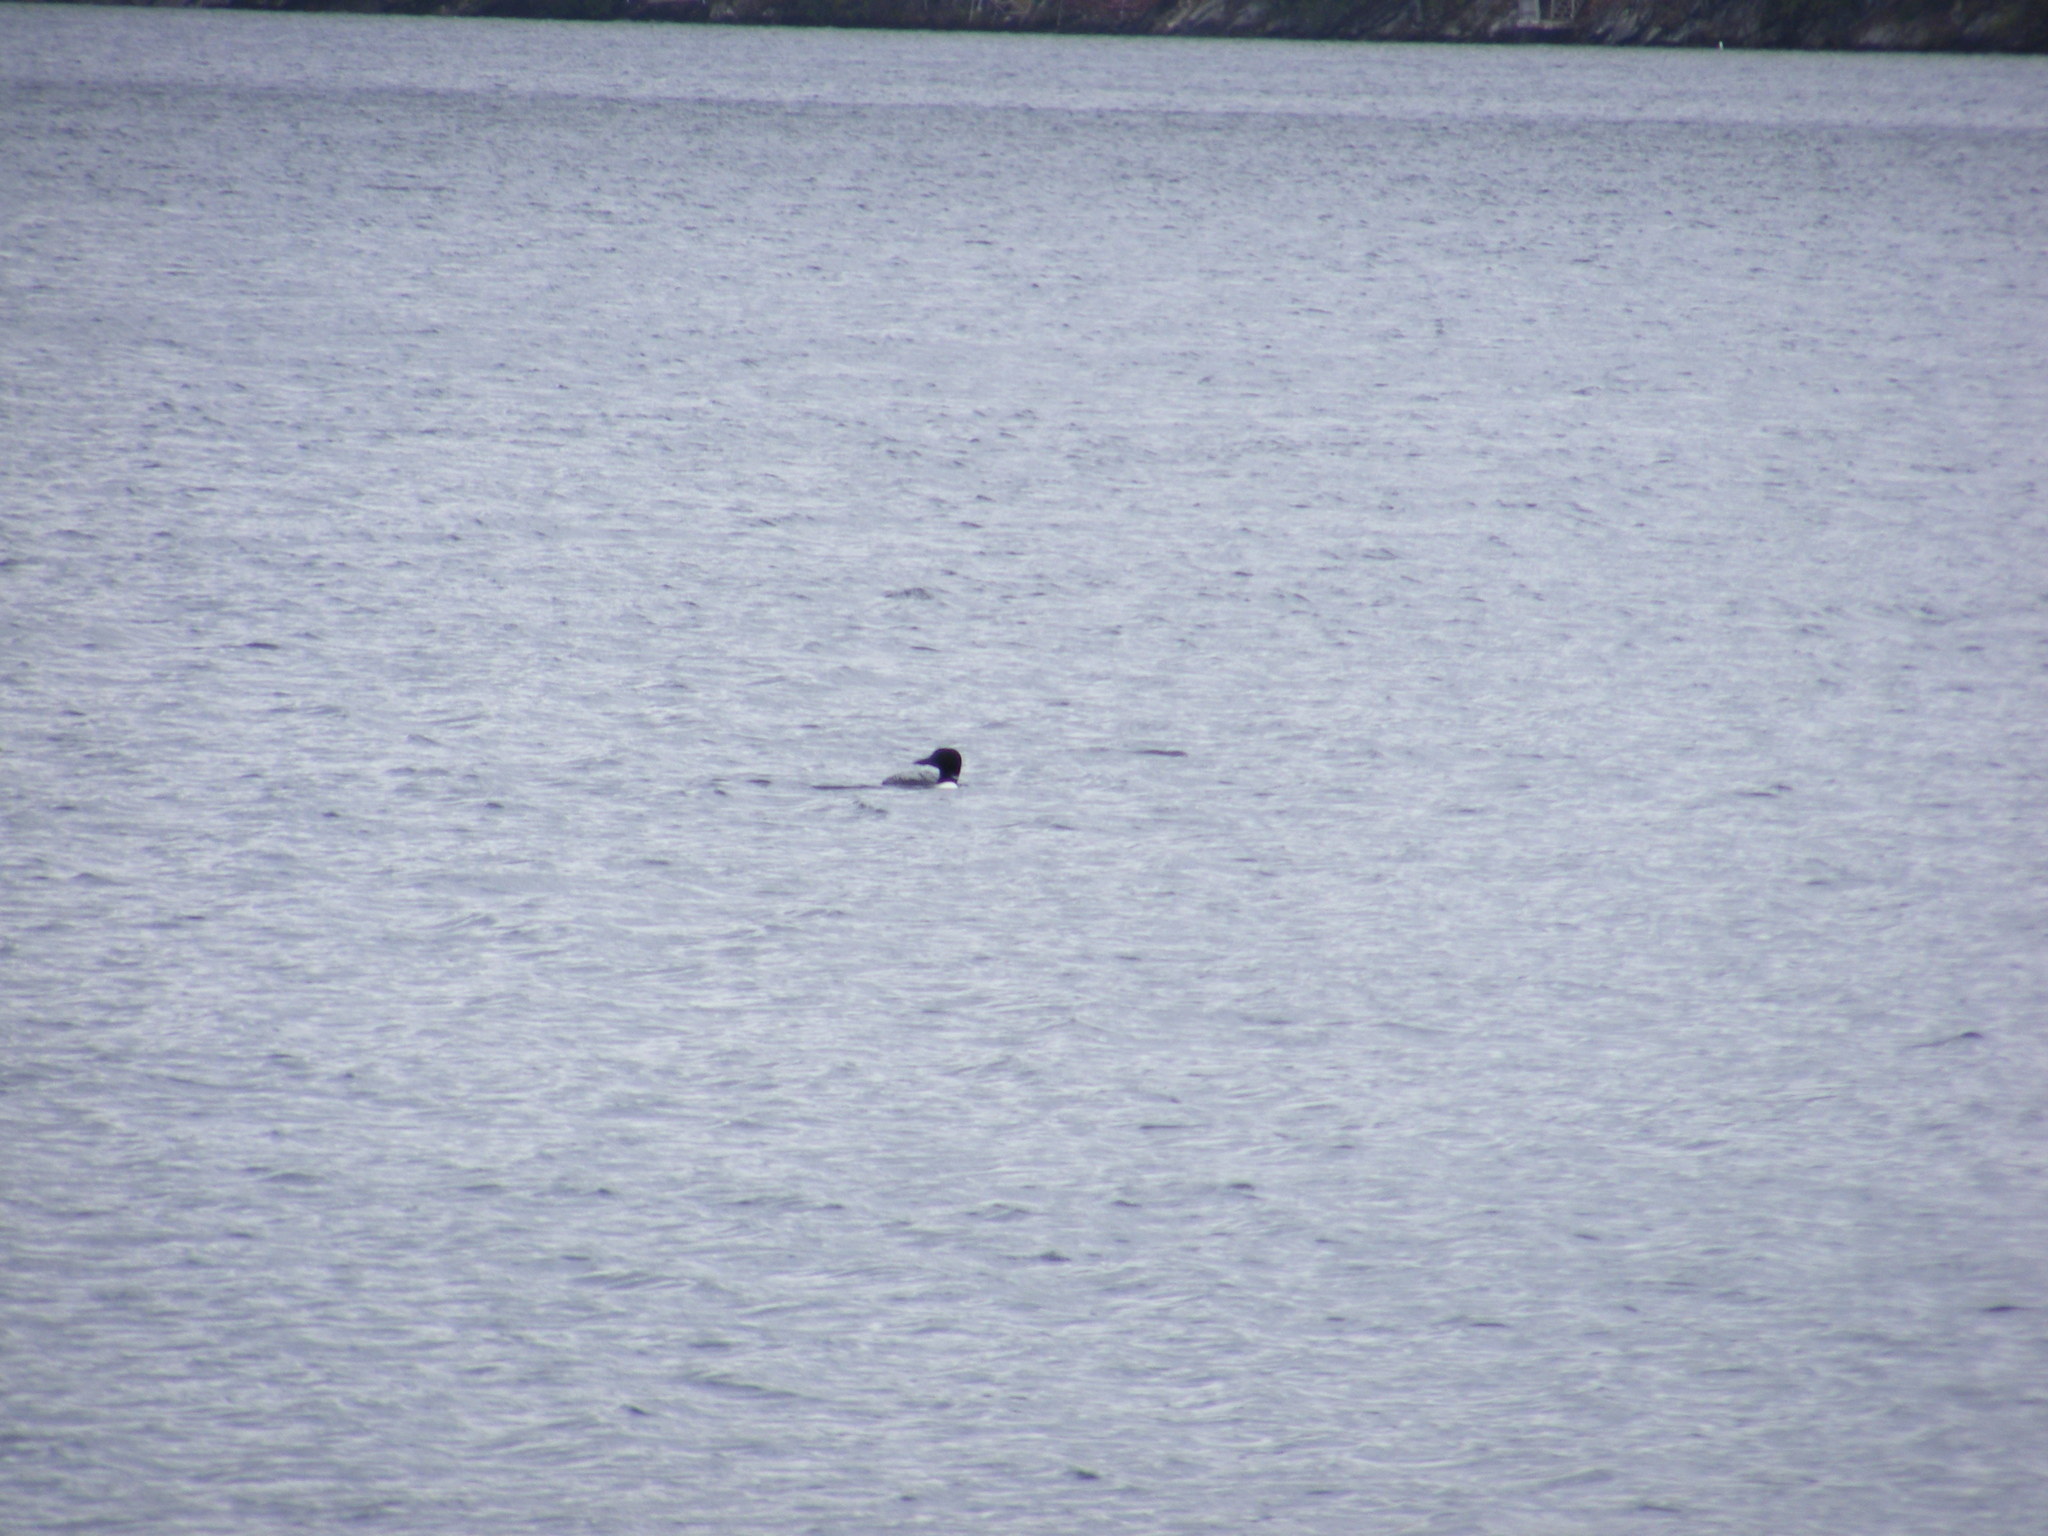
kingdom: Animalia
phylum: Chordata
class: Aves
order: Gaviiformes
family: Gaviidae
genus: Gavia
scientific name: Gavia immer
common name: Common loon
